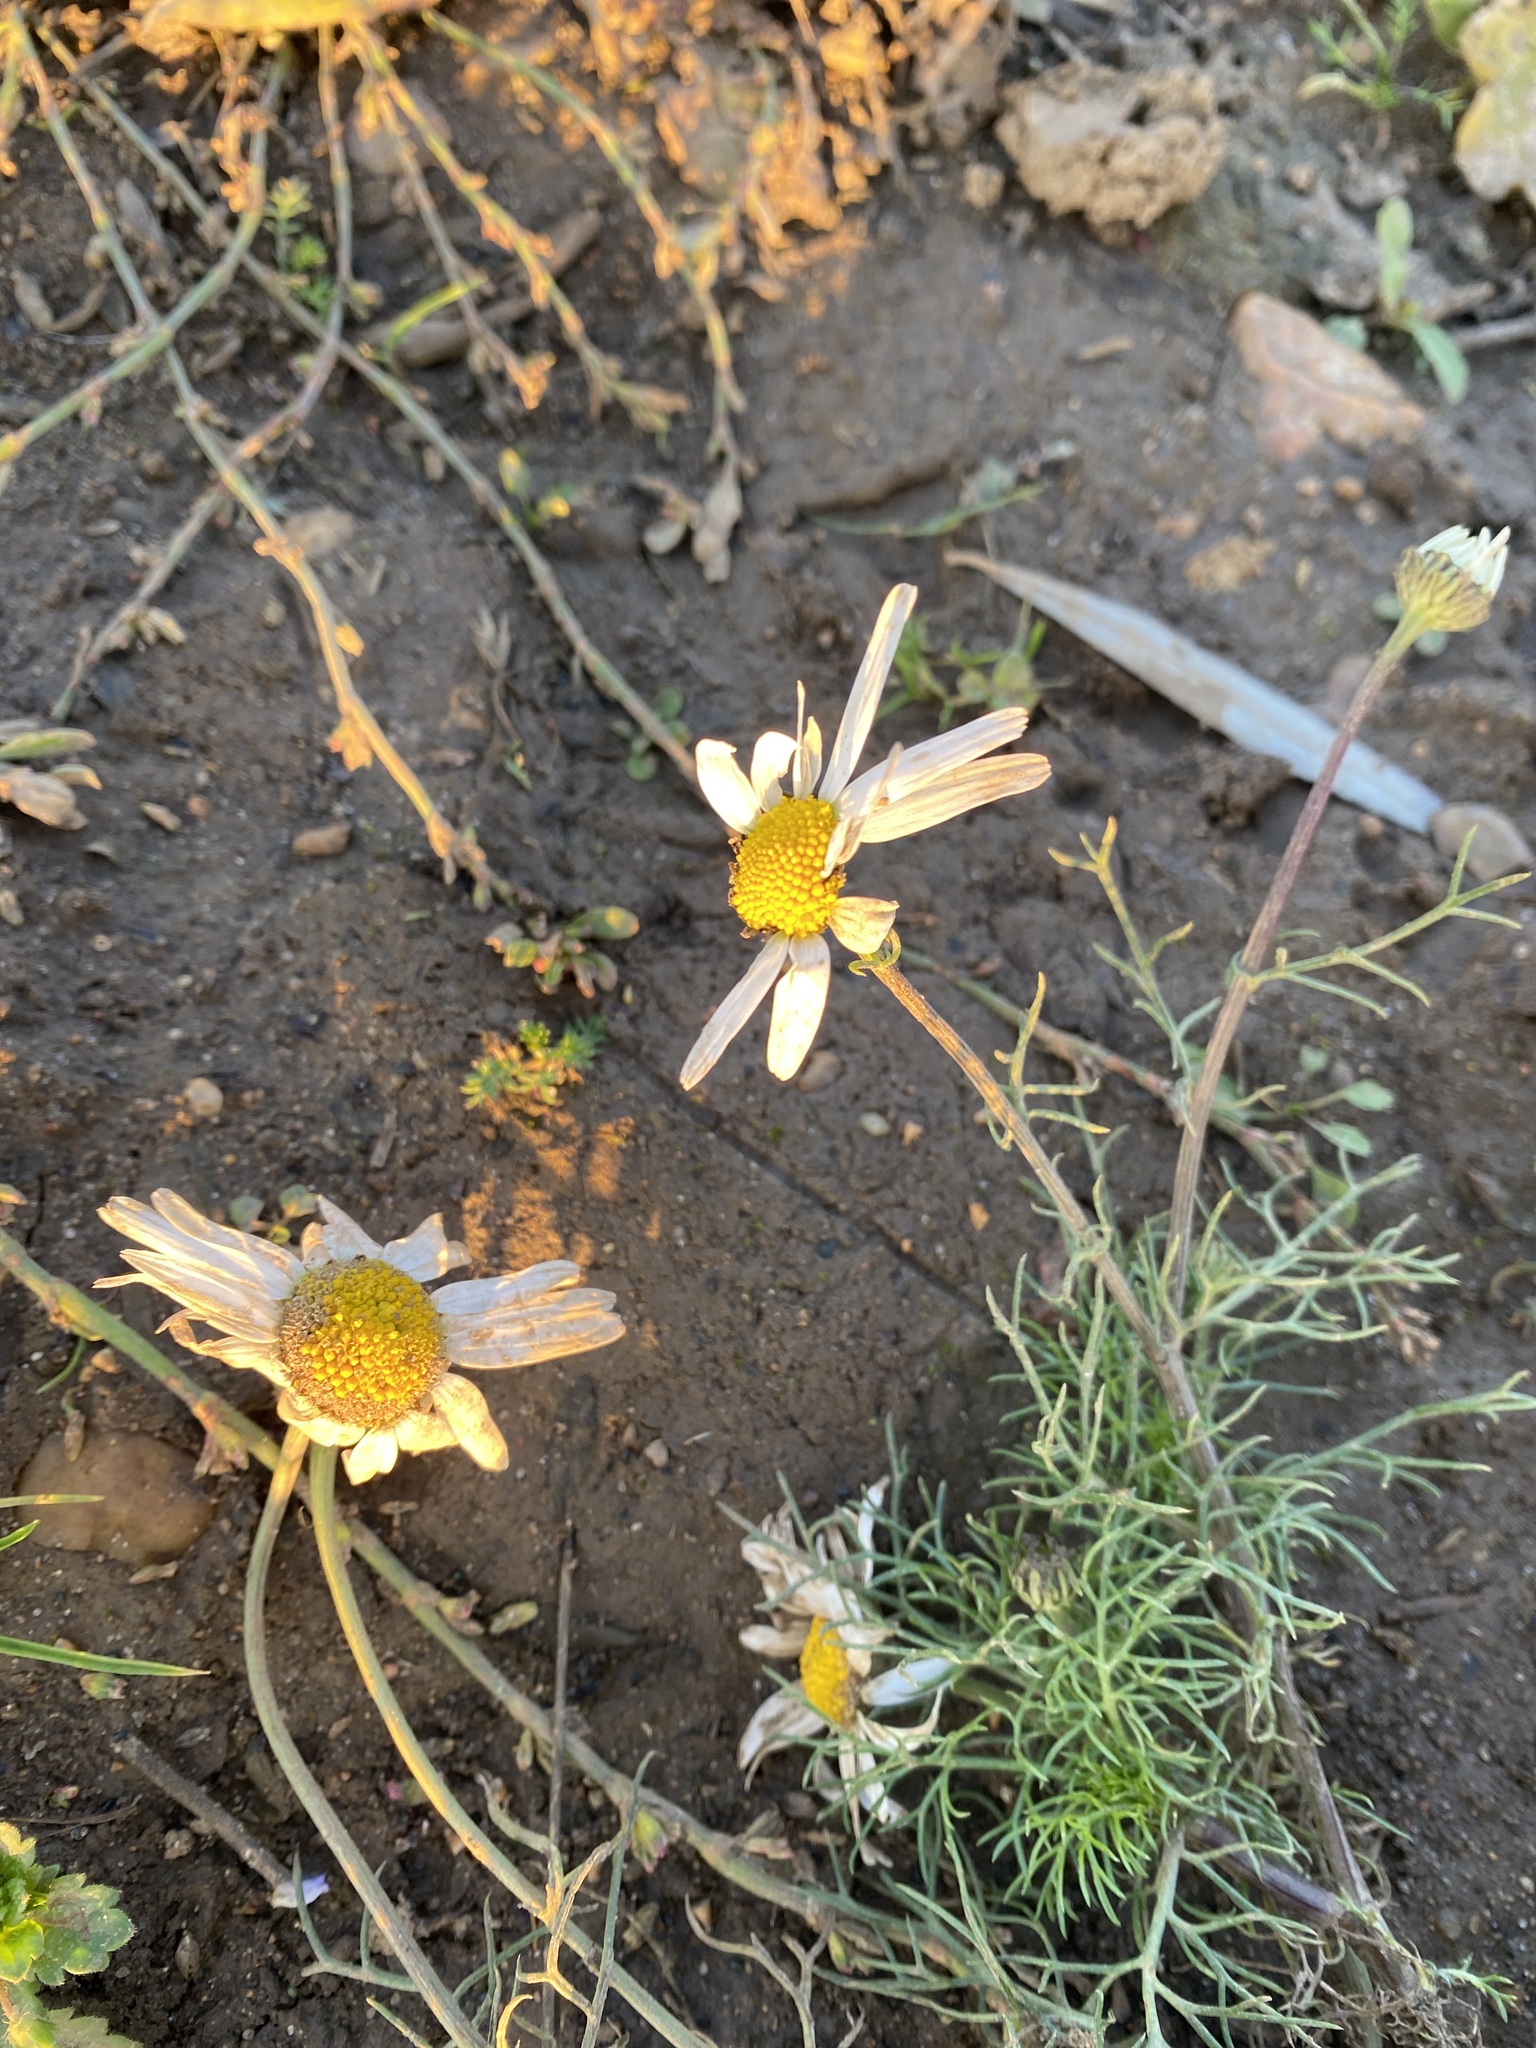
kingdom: Plantae
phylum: Tracheophyta
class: Magnoliopsida
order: Asterales
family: Asteraceae
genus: Tripleurospermum
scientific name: Tripleurospermum inodorum
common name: Scentless mayweed
